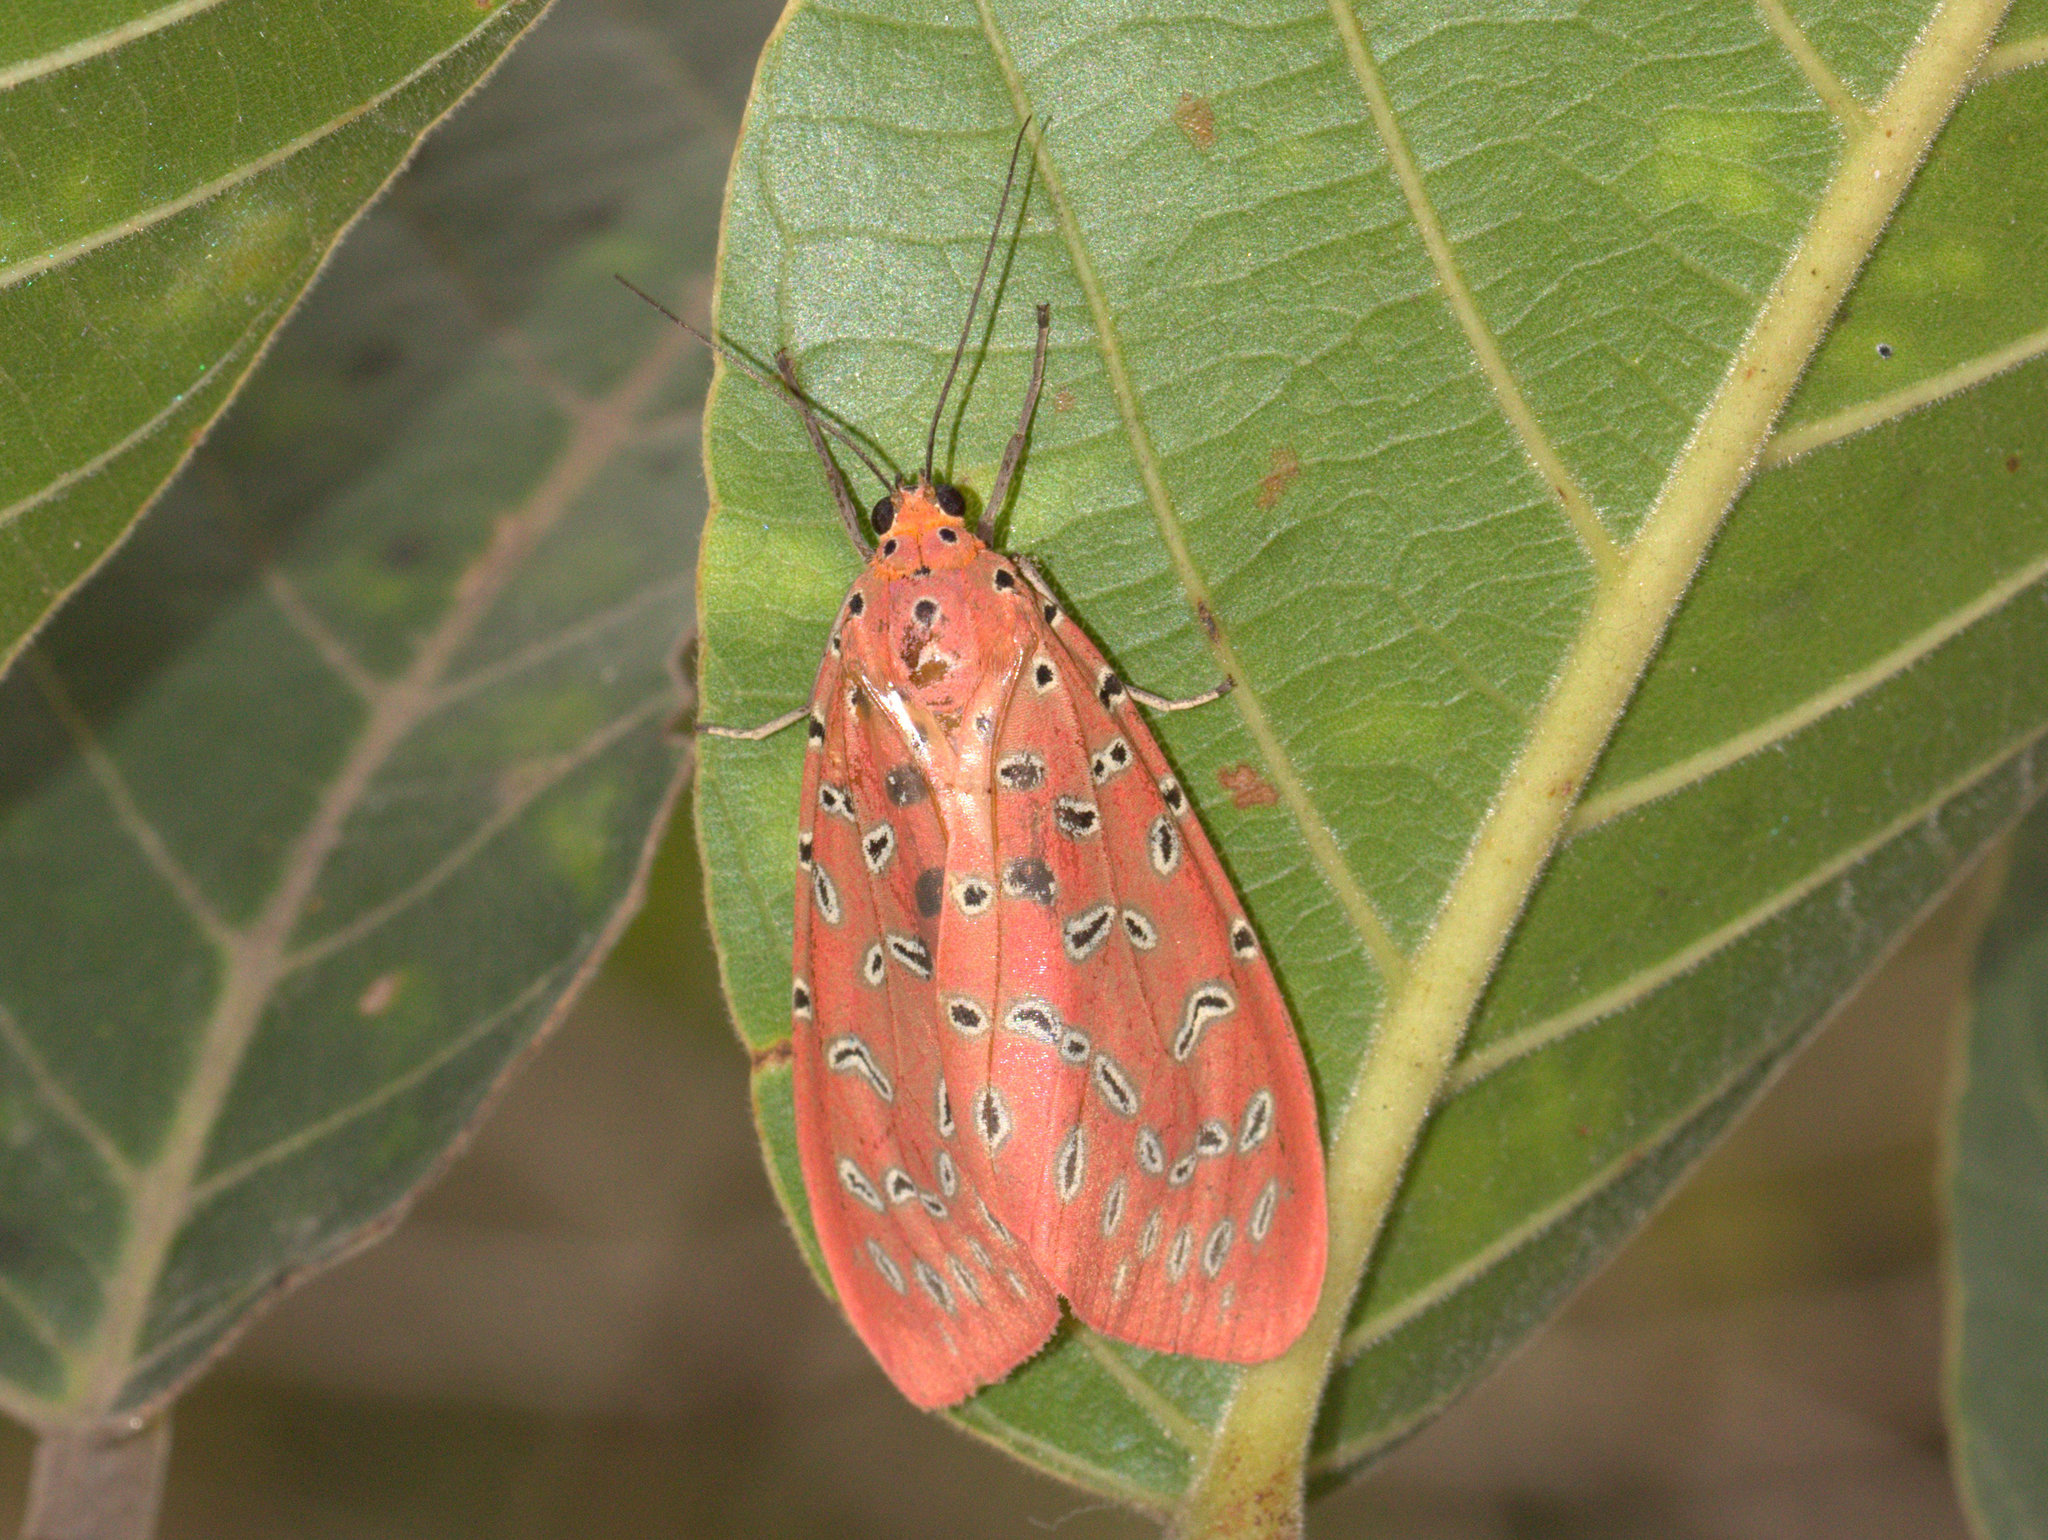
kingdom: Animalia
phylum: Arthropoda
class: Insecta
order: Lepidoptera
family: Erebidae
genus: Mangina
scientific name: Mangina argus
